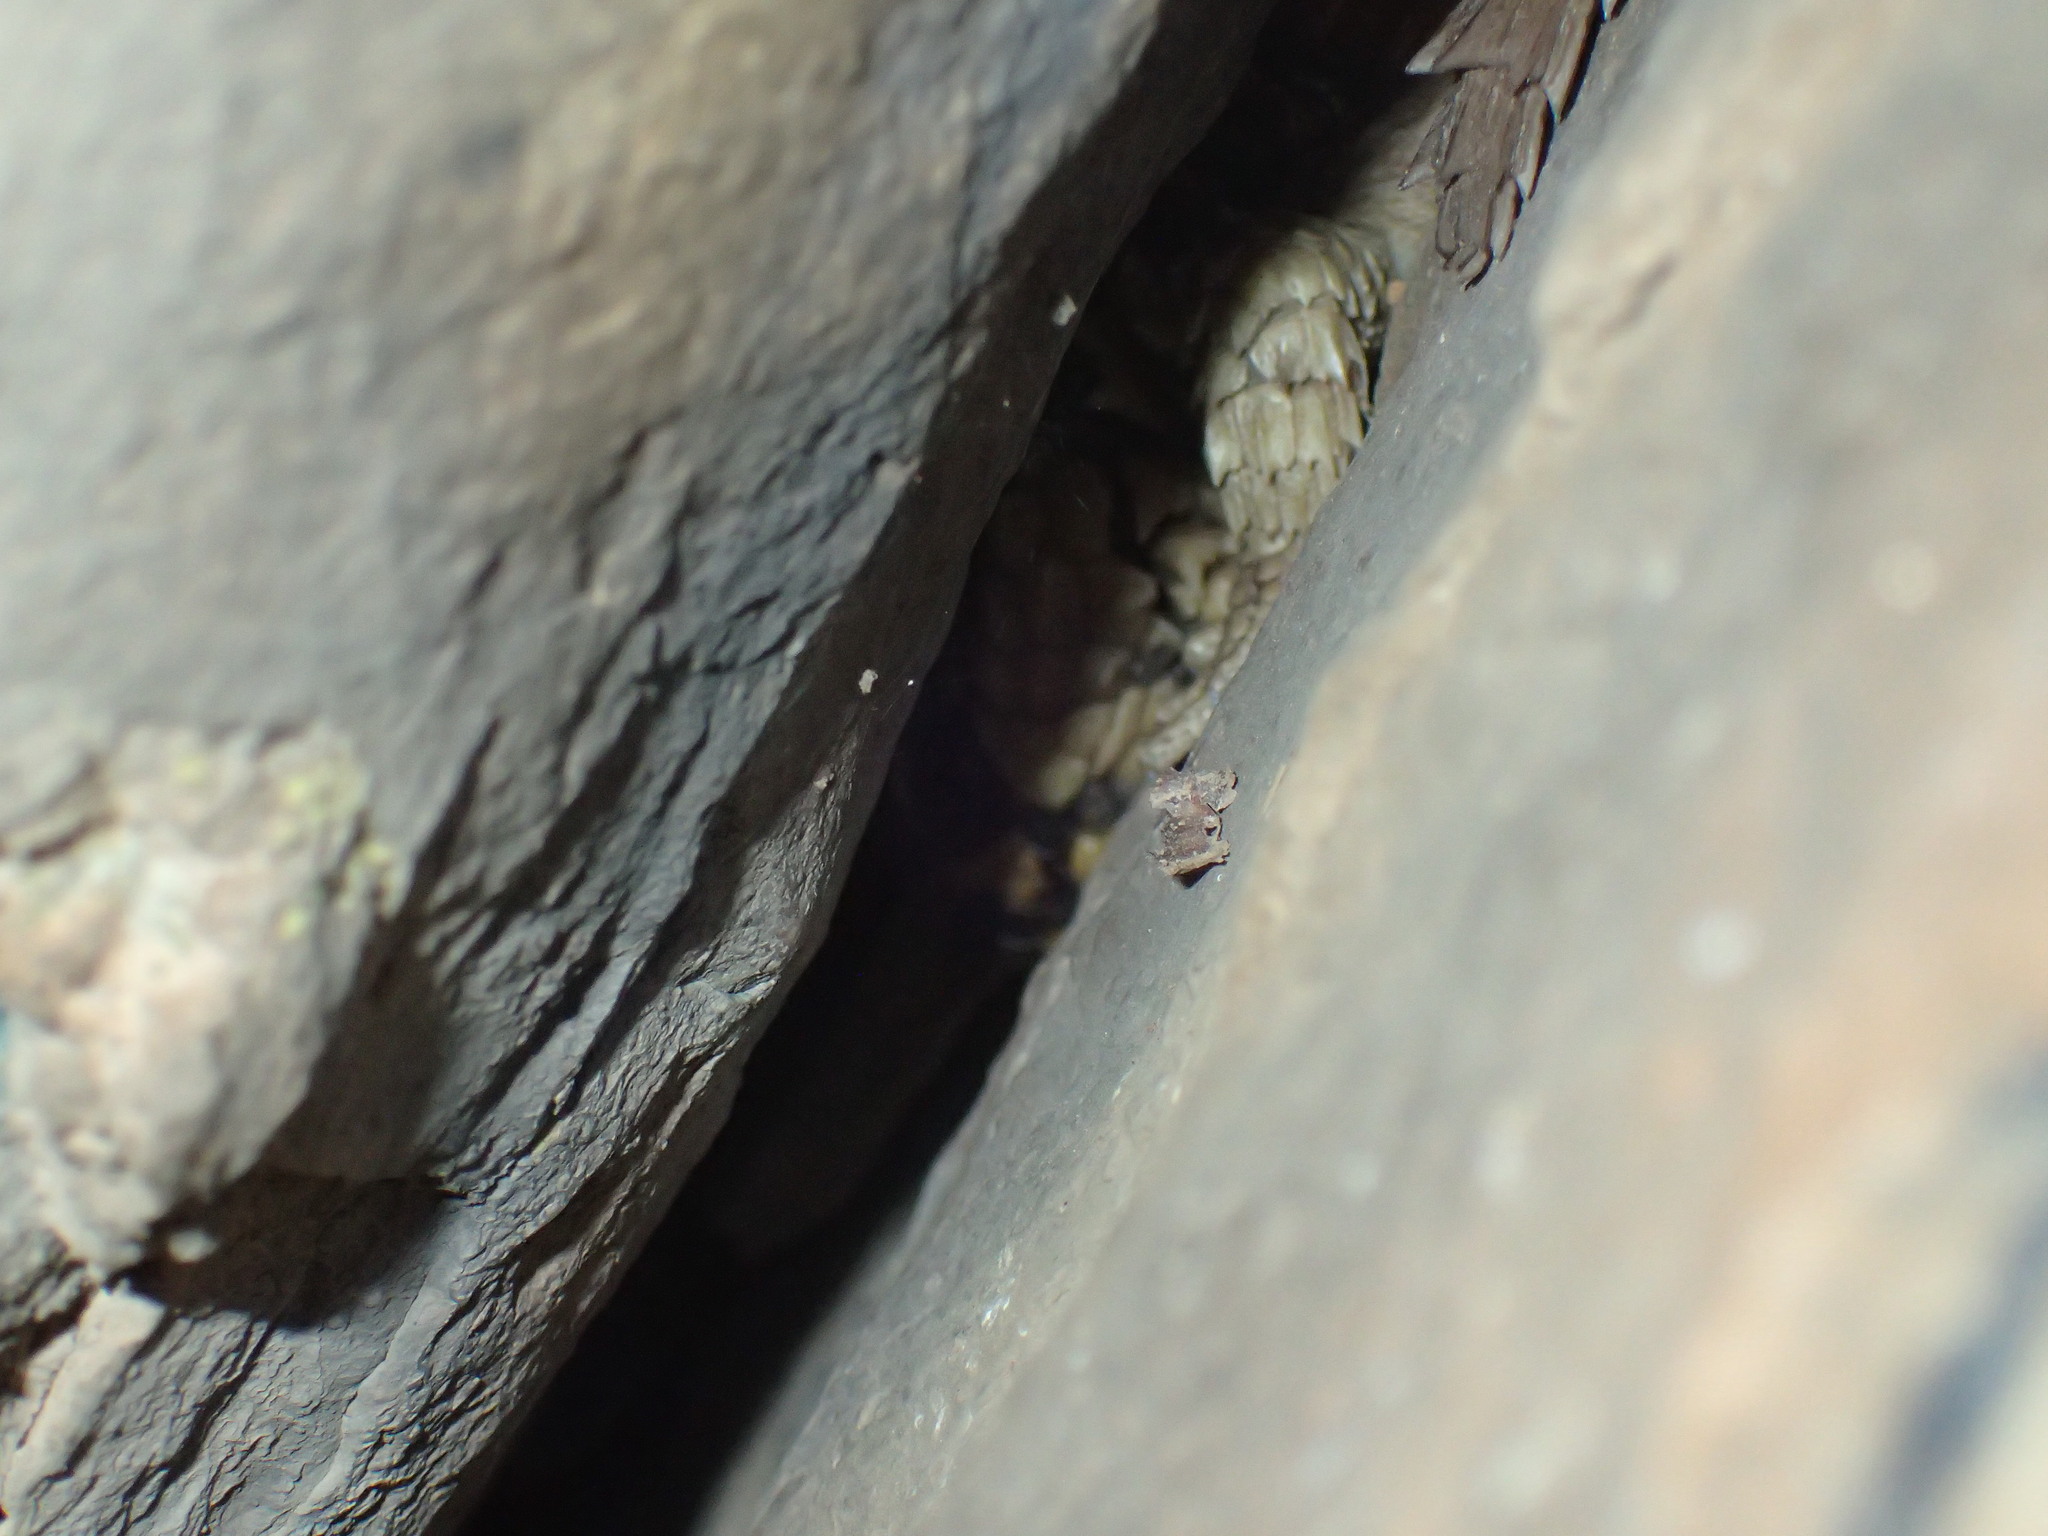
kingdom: Animalia
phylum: Chordata
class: Squamata
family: Cordylidae
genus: Ouroborus
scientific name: Ouroborus cataphractus
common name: Armadillo girdled lizard
